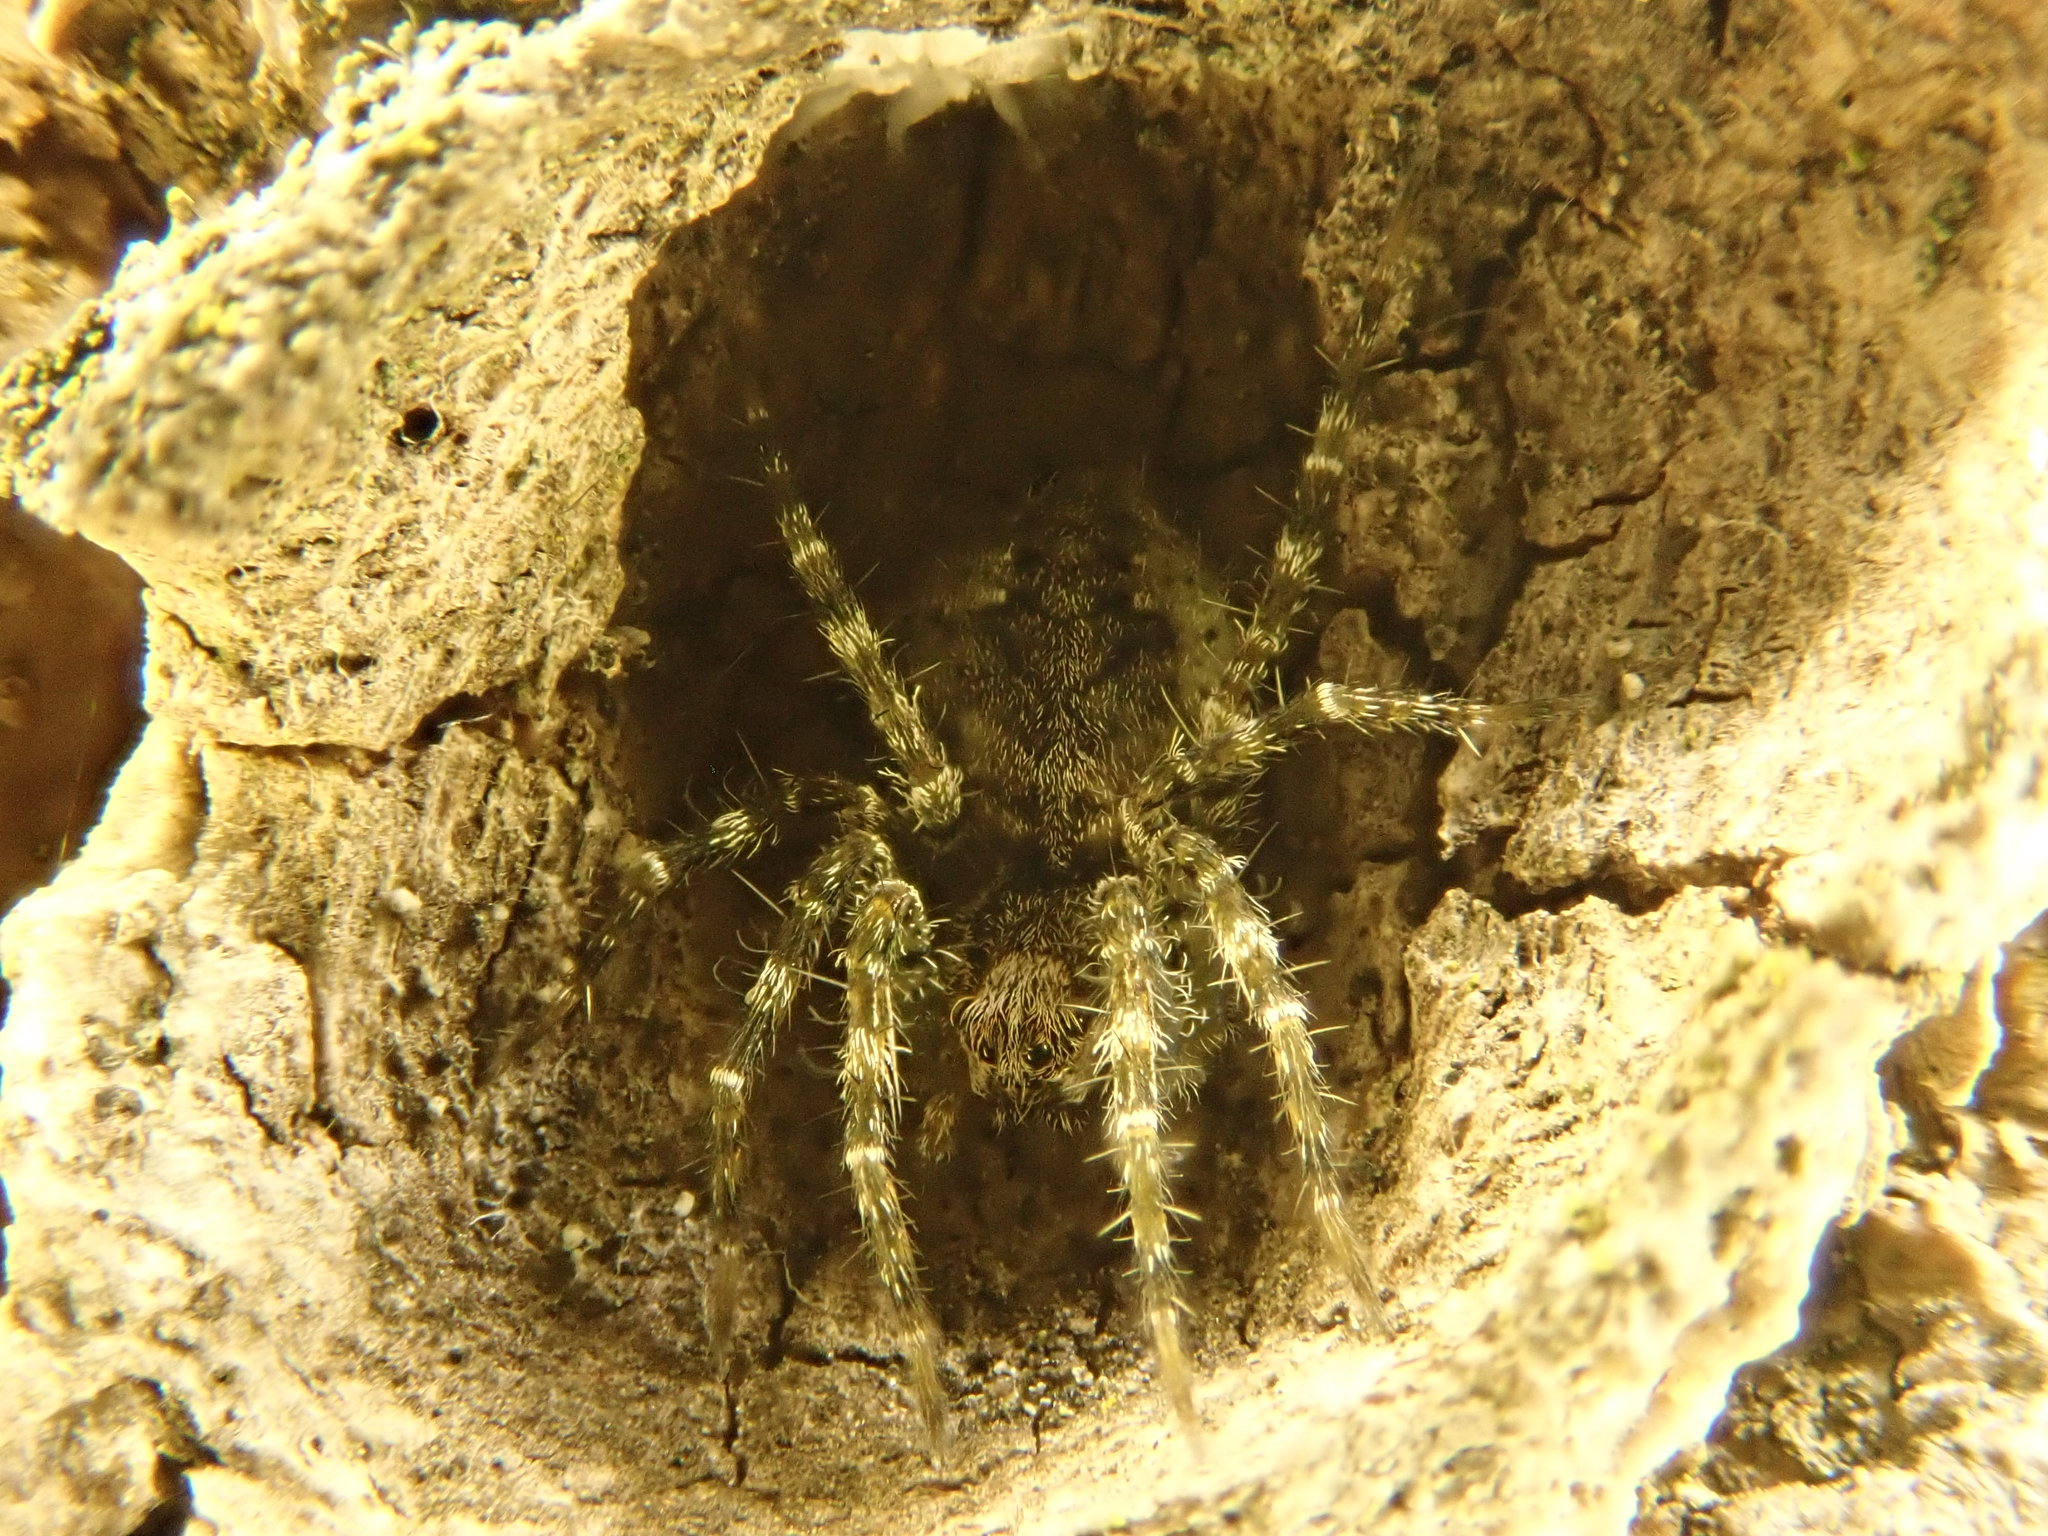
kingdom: Animalia
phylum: Arthropoda
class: Arachnida
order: Araneae
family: Pisauridae
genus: Dolomedes
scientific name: Dolomedes albineus
